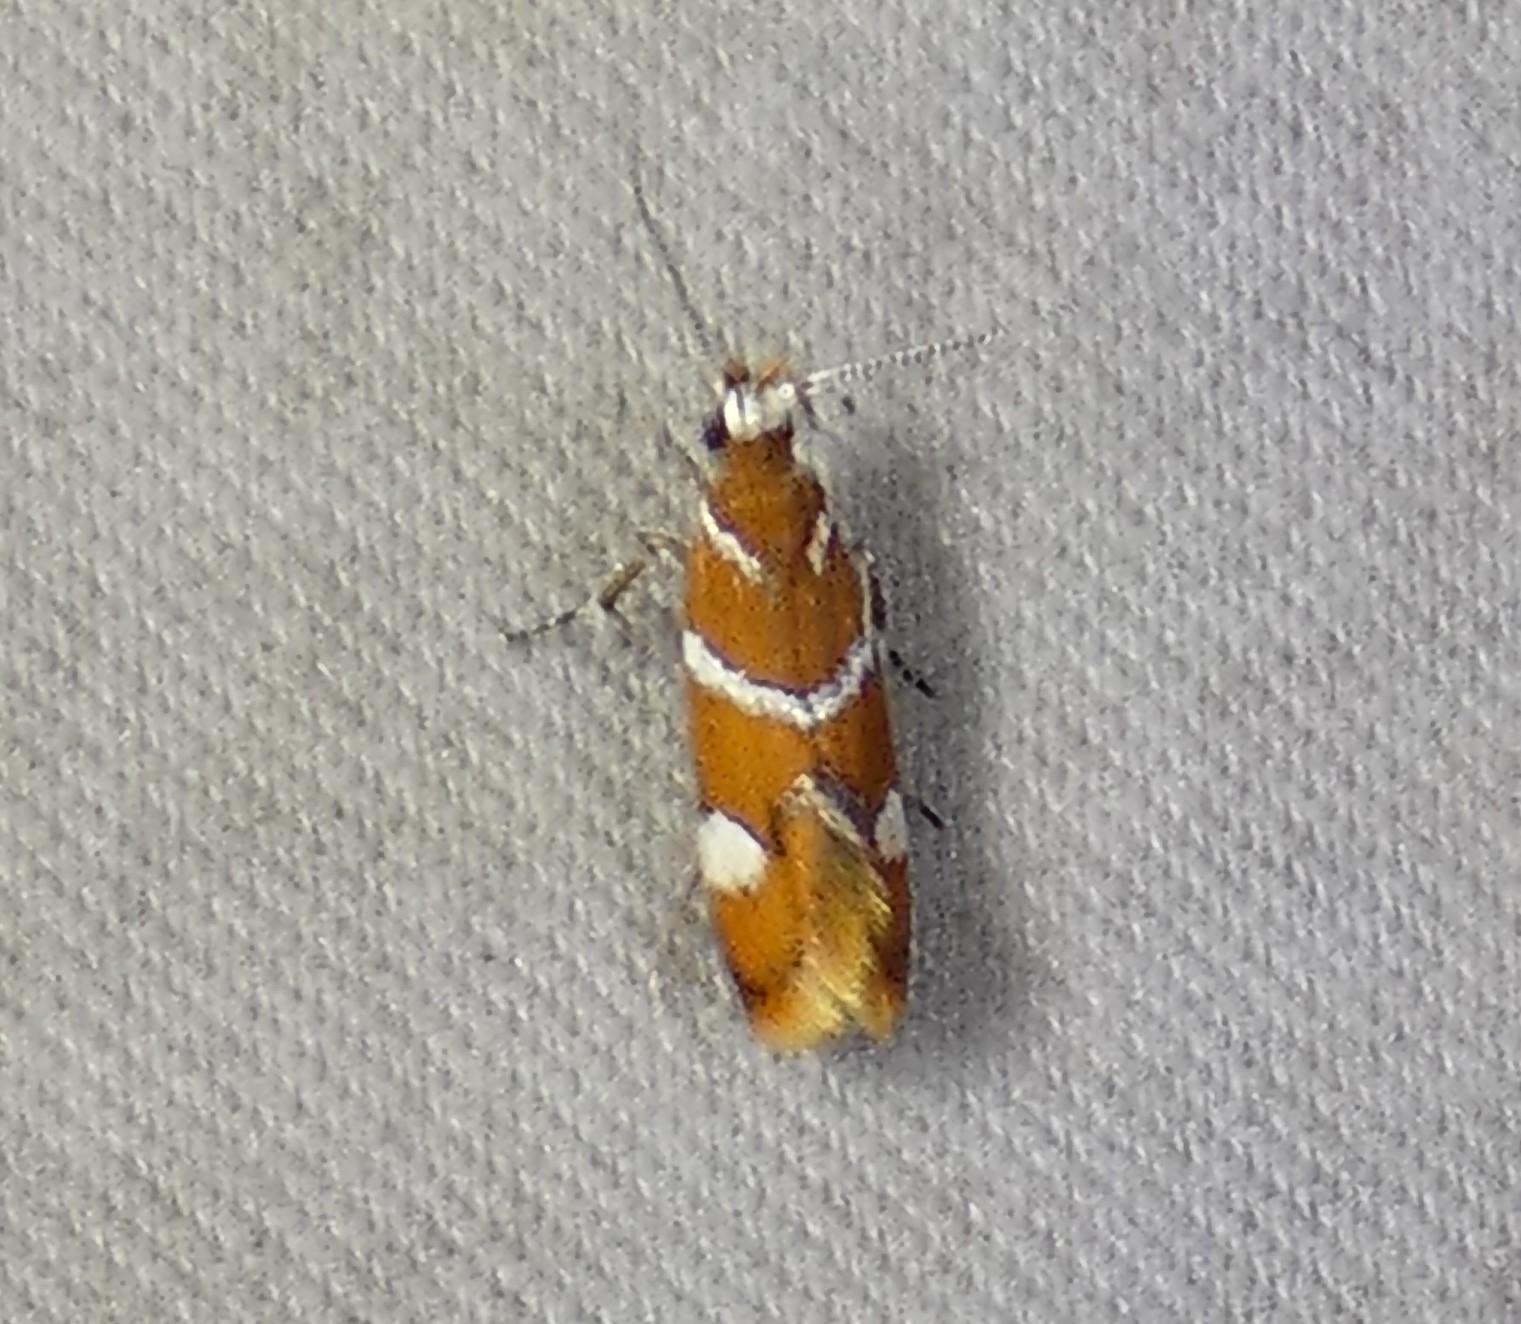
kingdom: Animalia
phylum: Arthropoda
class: Insecta
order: Lepidoptera
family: Oecophoridae
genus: Promalactis
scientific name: Promalactis suzukiella
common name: Moth
